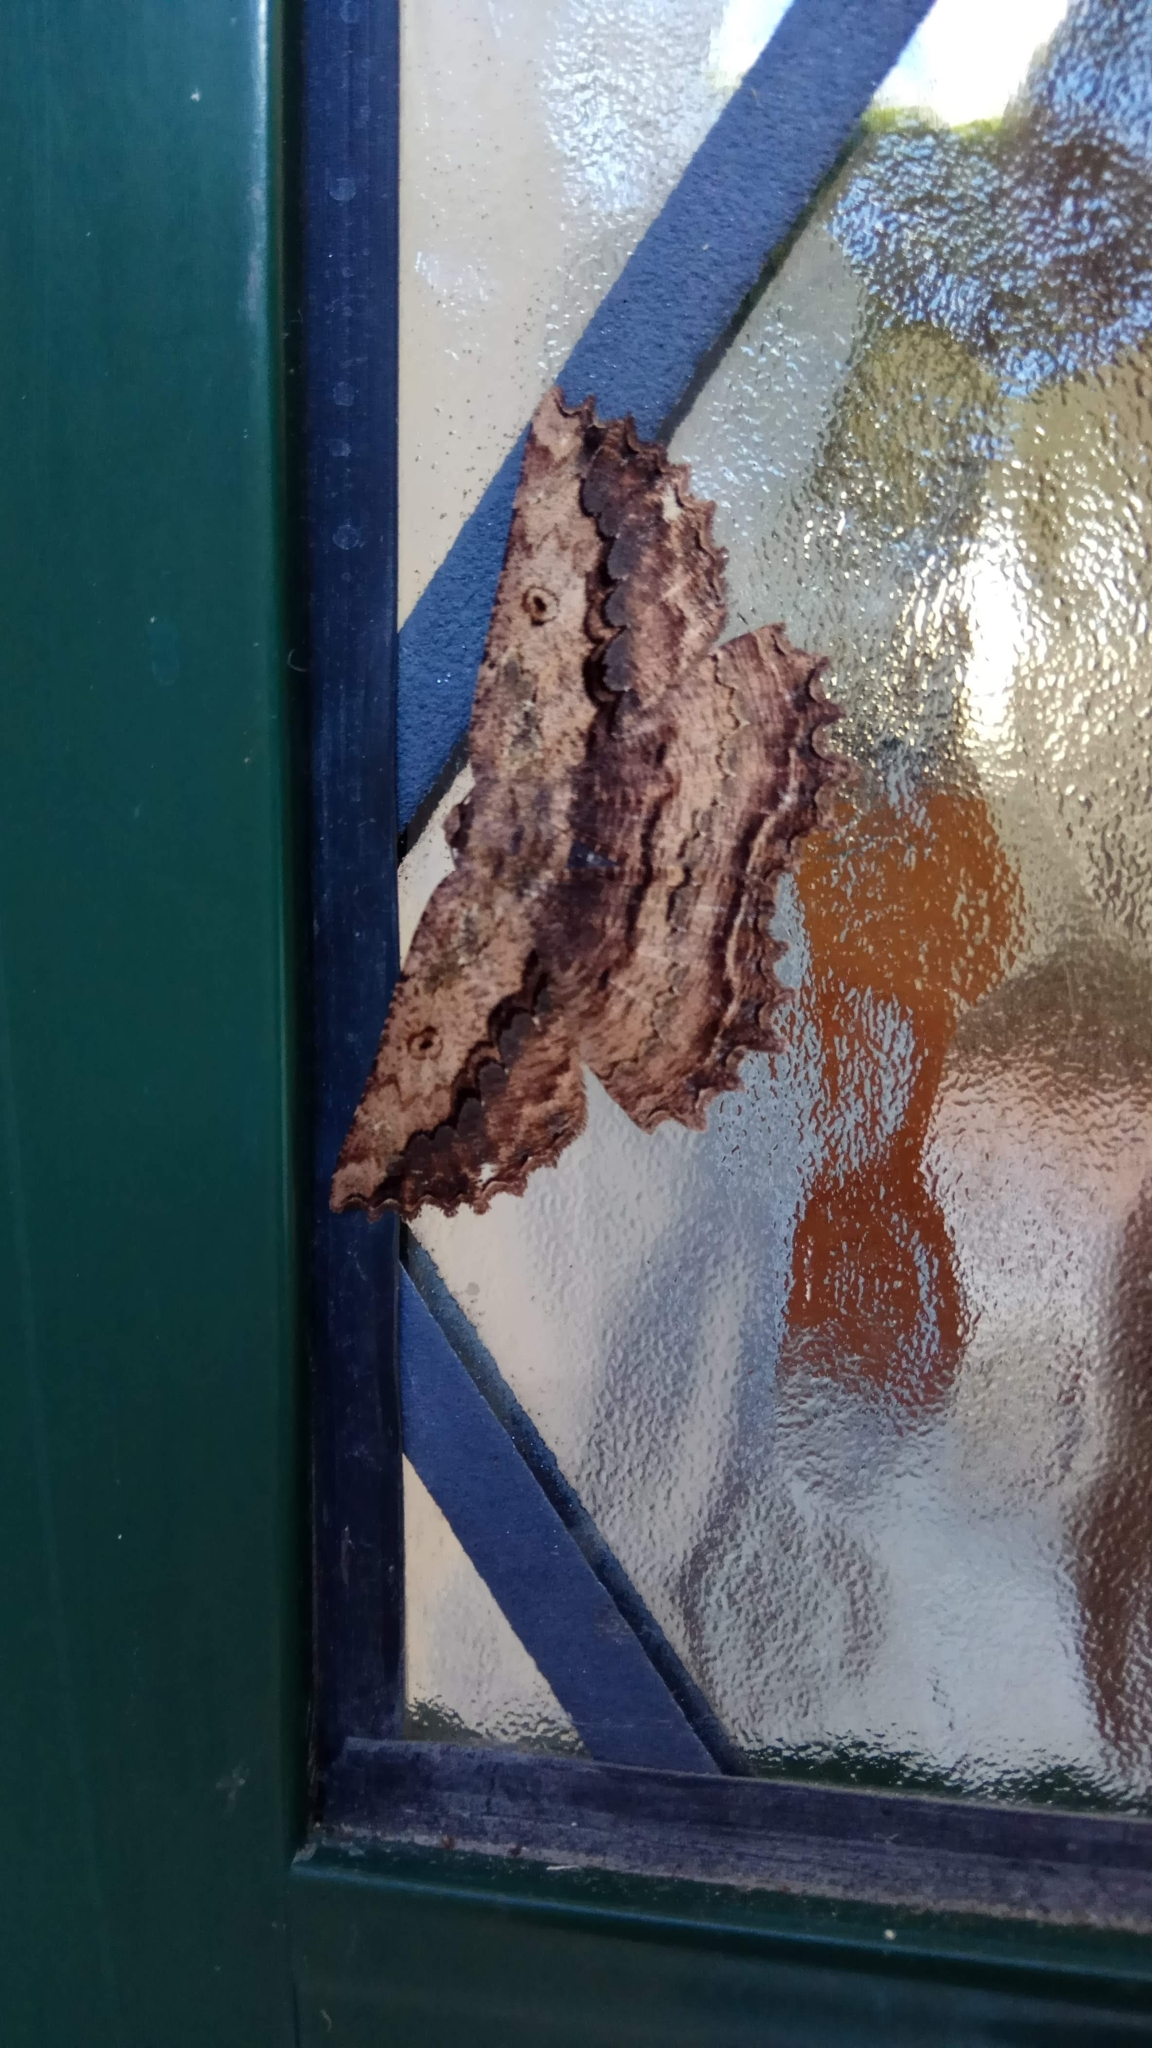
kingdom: Animalia
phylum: Arthropoda
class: Insecta
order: Lepidoptera
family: Geometridae
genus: Gellonia
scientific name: Gellonia pannularia
